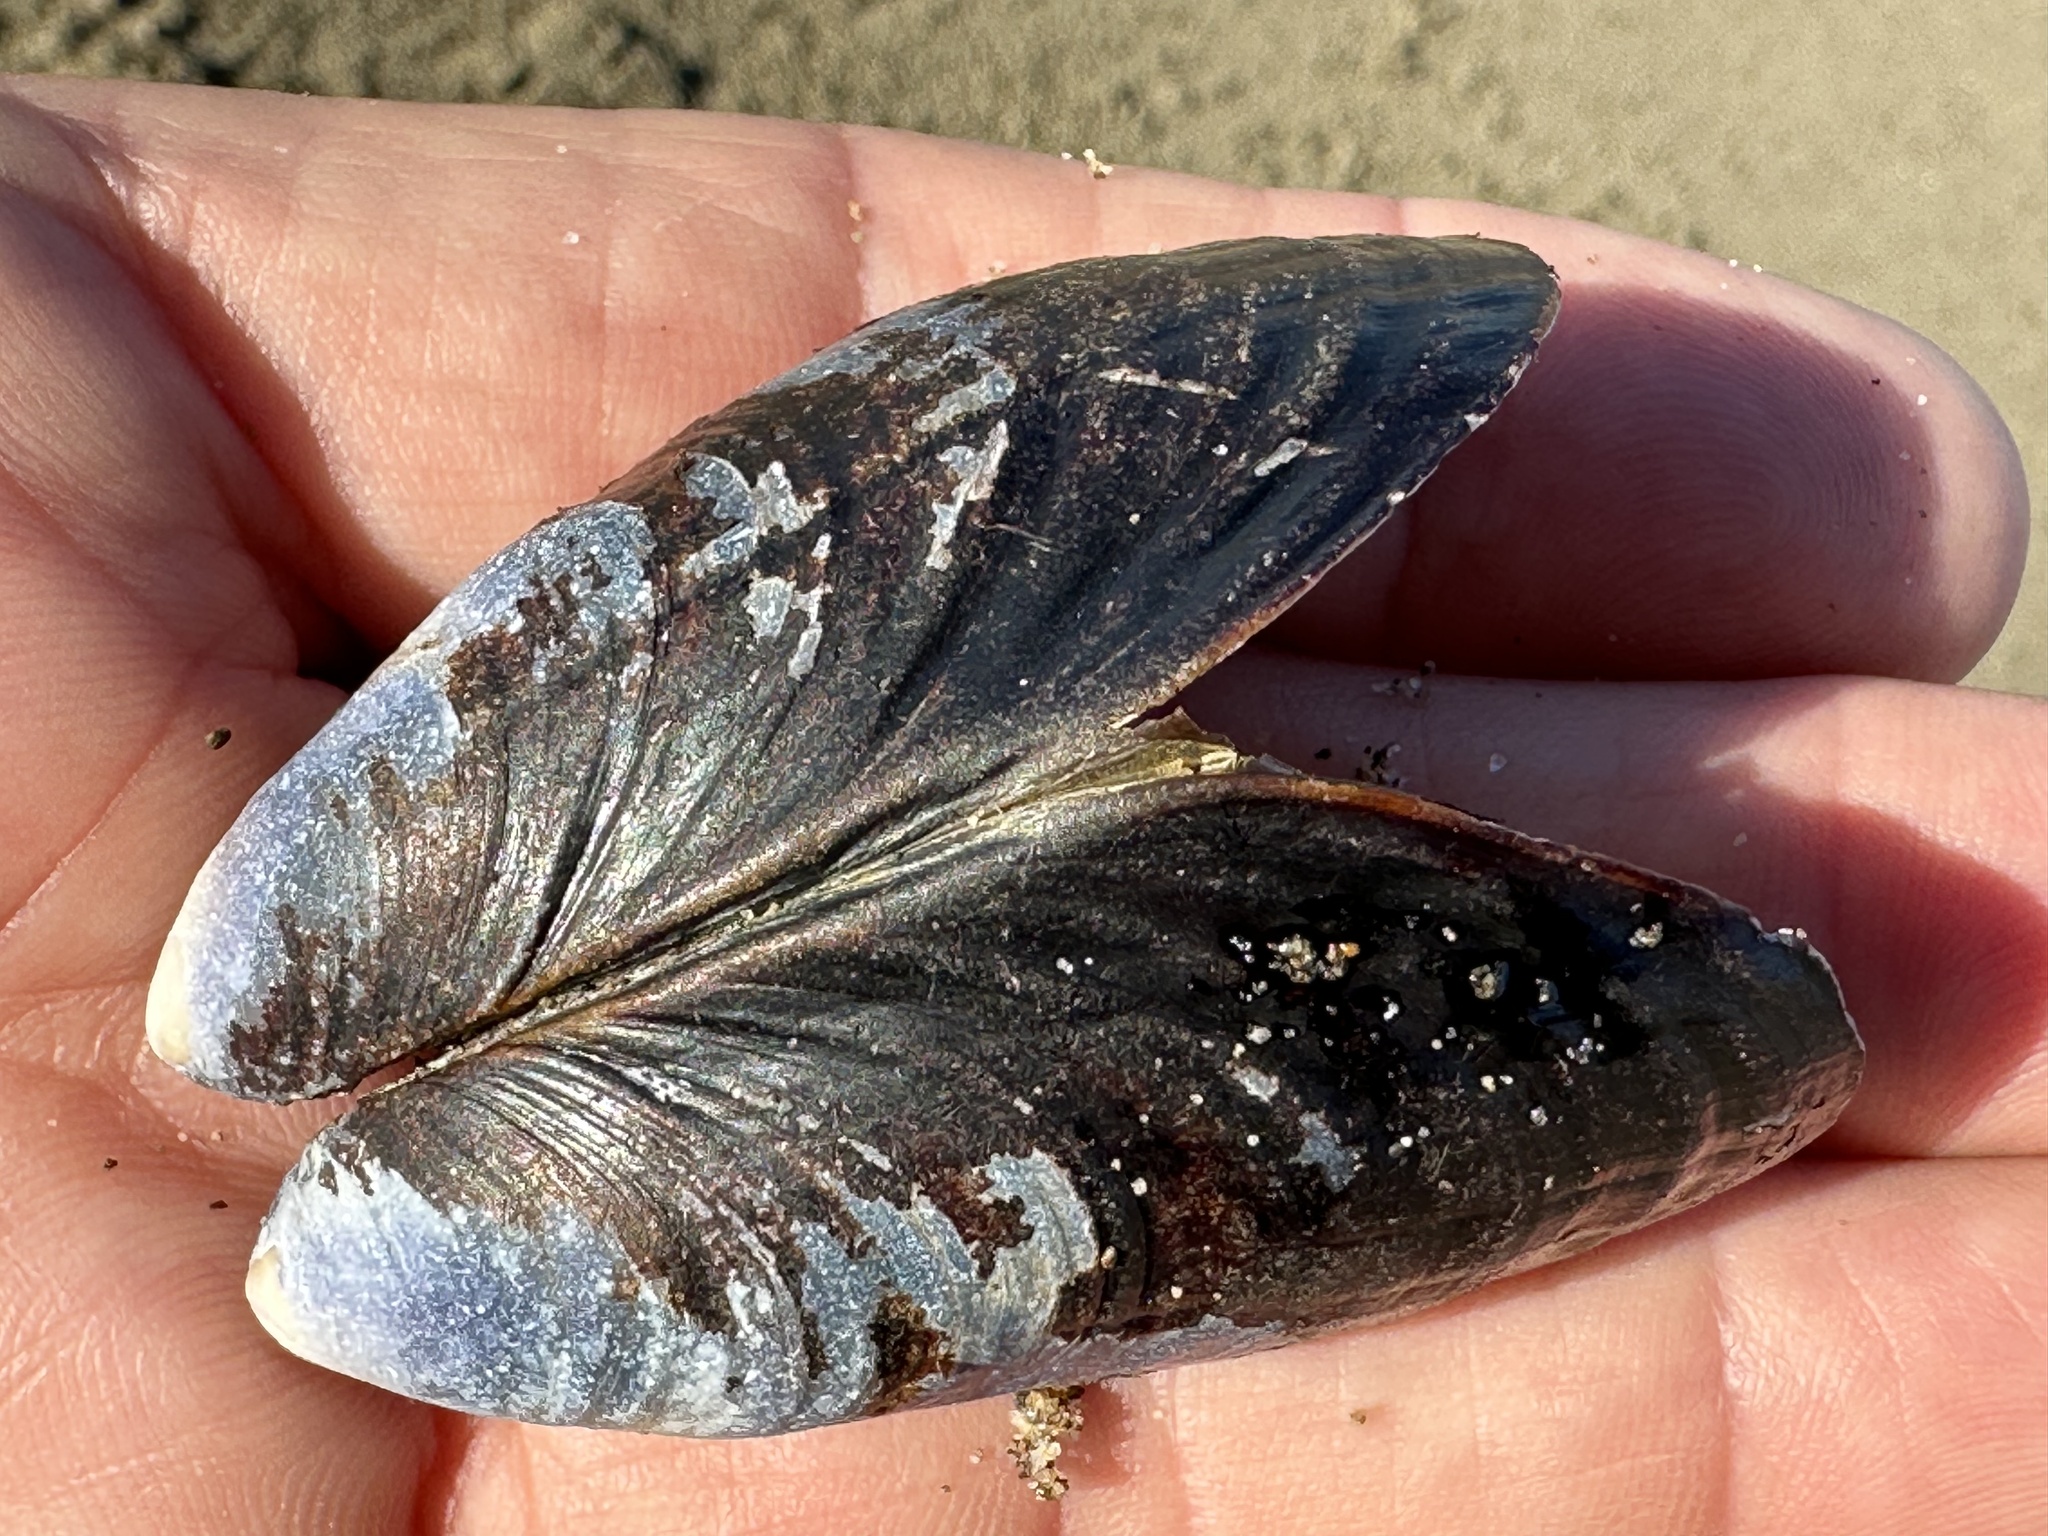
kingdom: Animalia
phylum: Mollusca
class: Bivalvia
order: Mytilida
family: Mytilidae
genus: Mytilus
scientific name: Mytilus californianus
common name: California mussel
